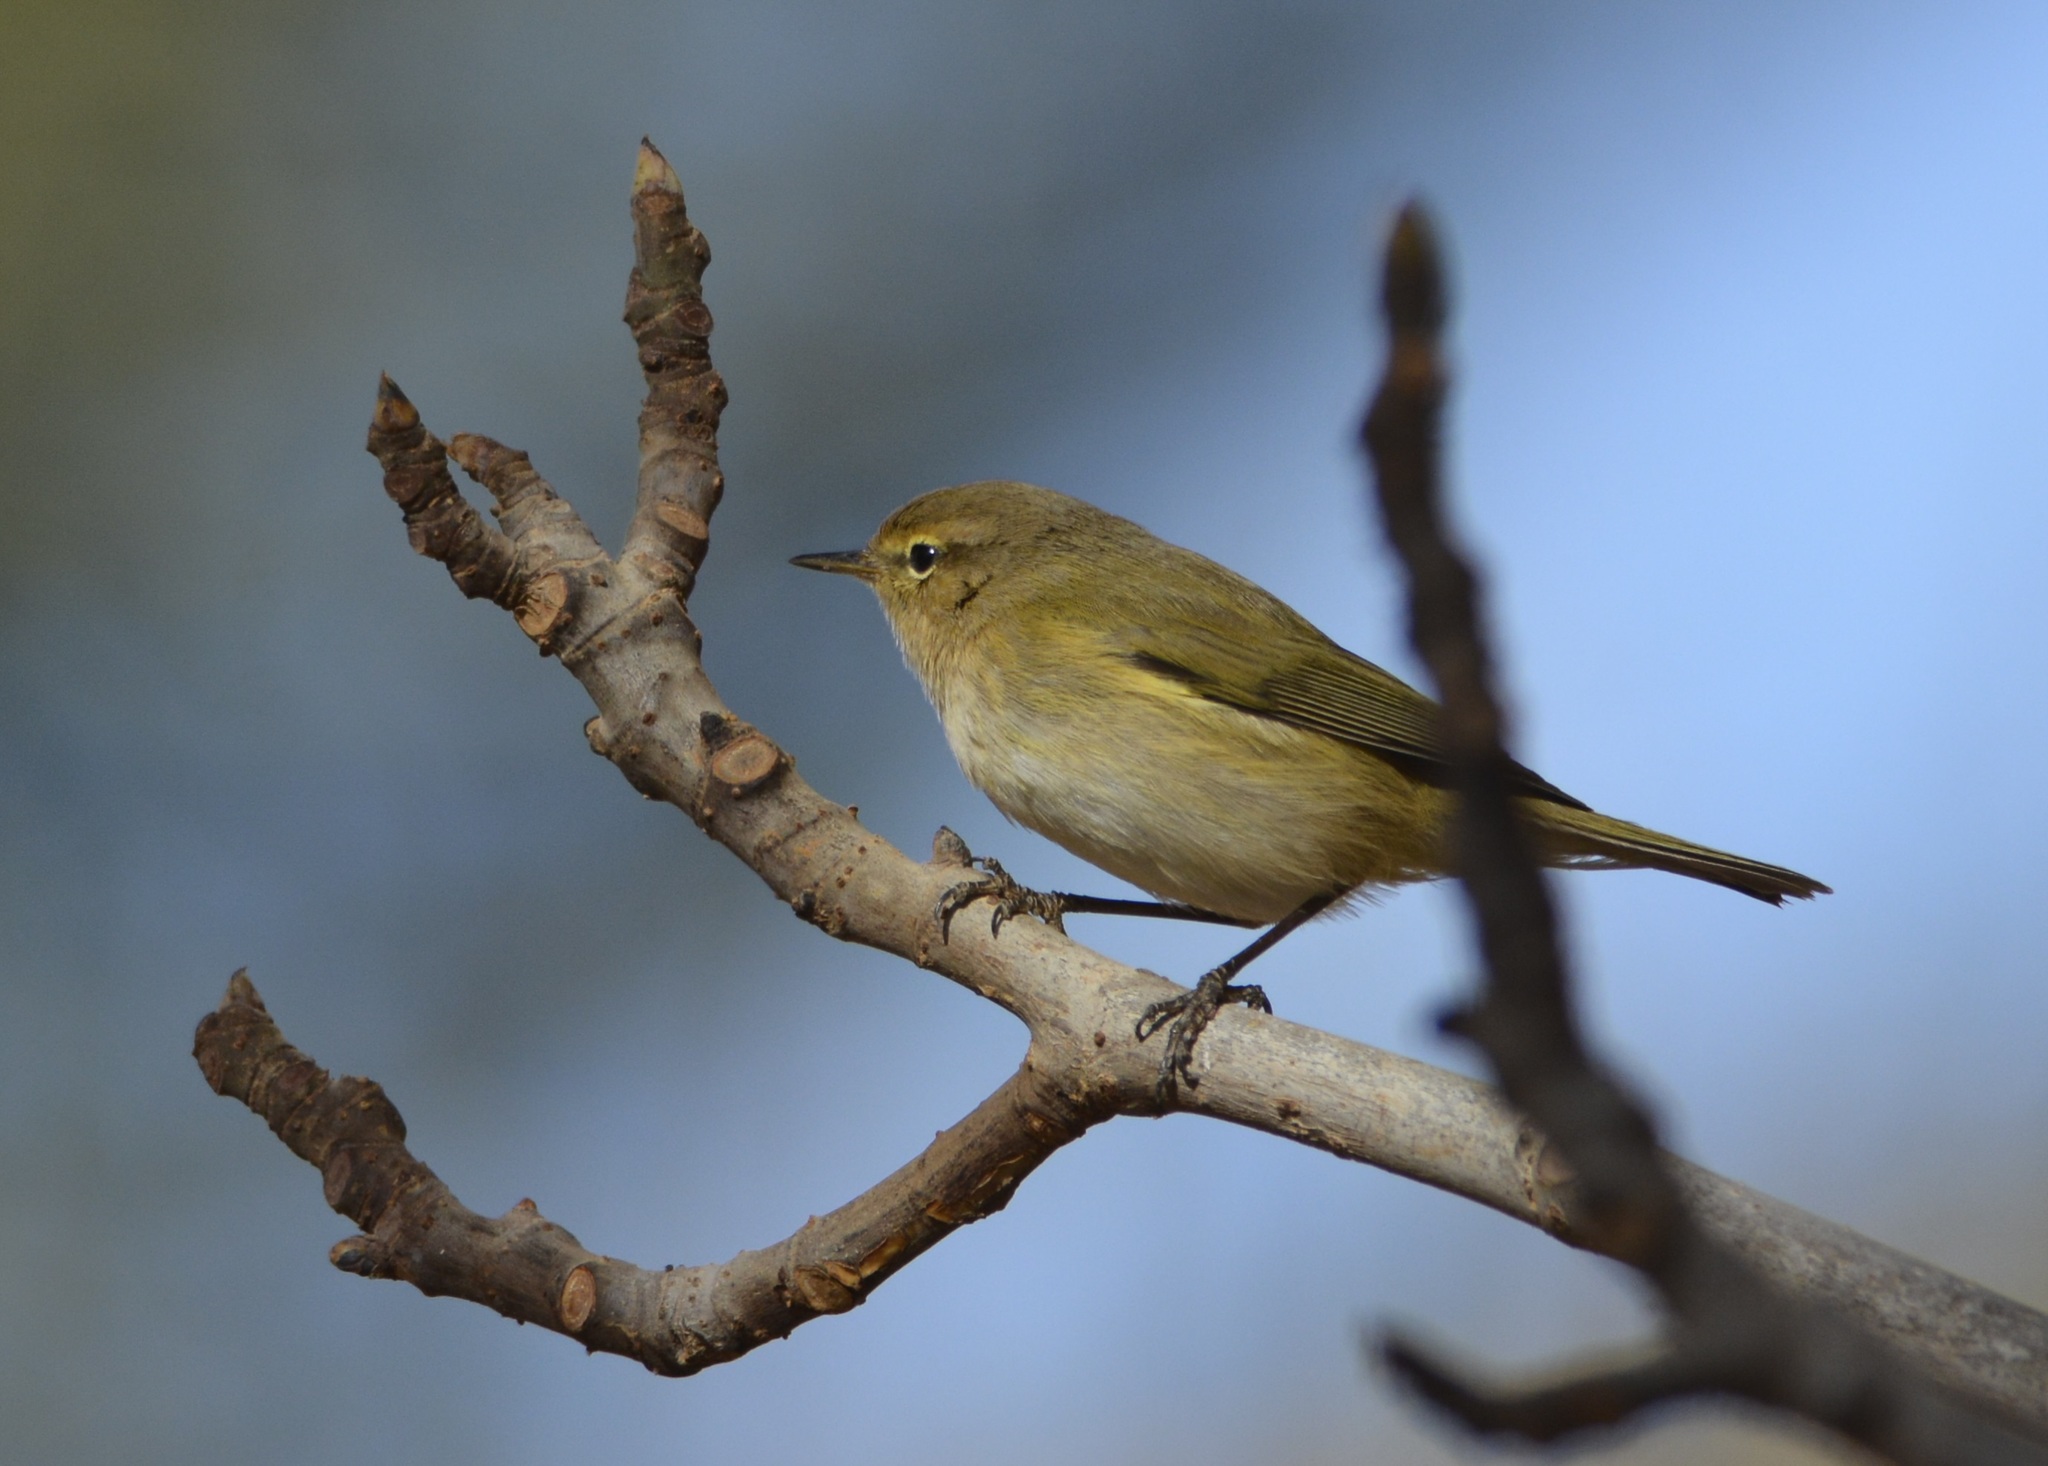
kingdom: Animalia
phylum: Chordata
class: Aves
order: Passeriformes
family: Phylloscopidae
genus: Phylloscopus
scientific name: Phylloscopus collybita
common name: Common chiffchaff
